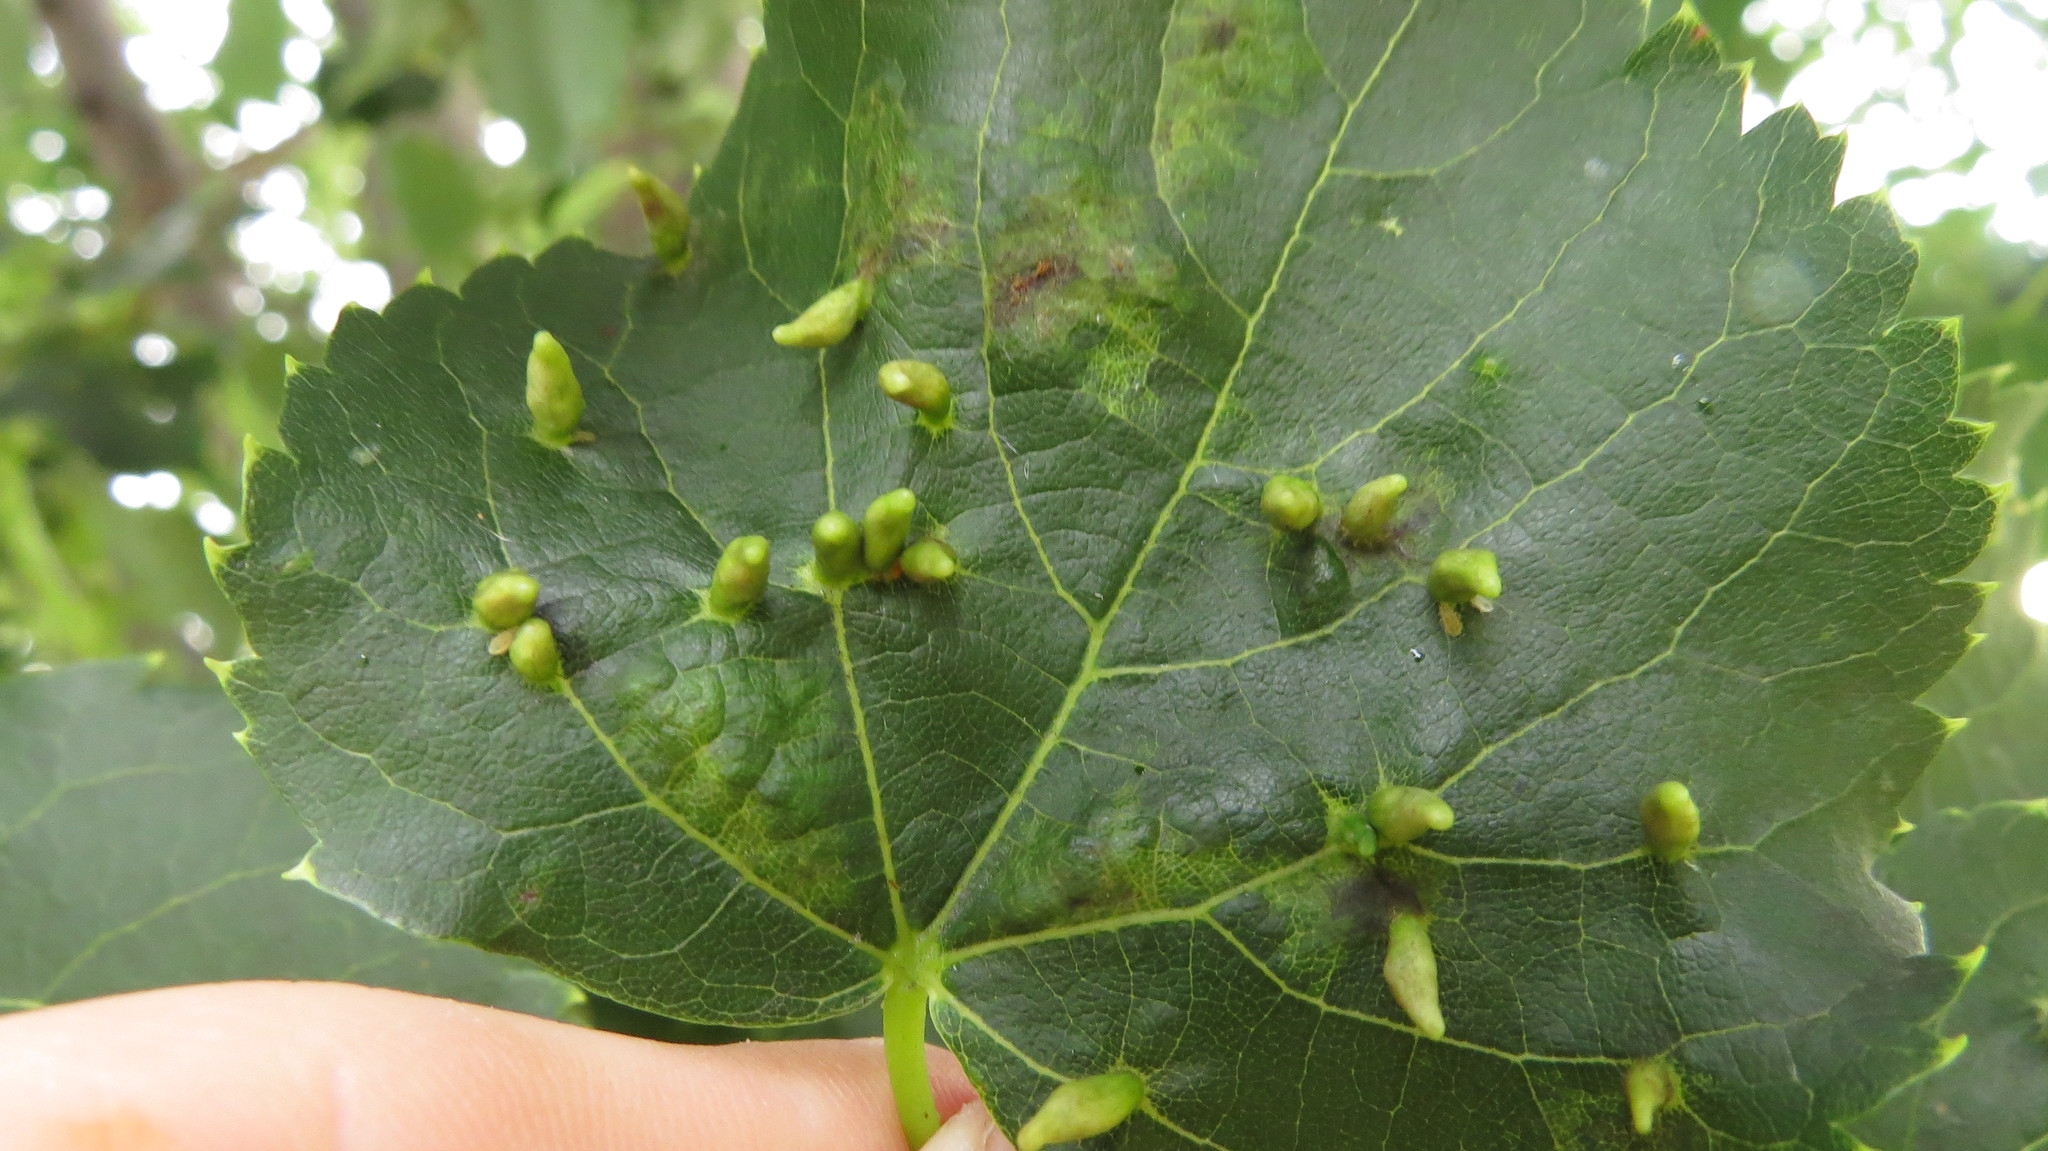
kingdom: Animalia
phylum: Arthropoda
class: Arachnida
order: Trombidiformes
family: Eriophyidae
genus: Eriophyes
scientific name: Eriophyes tiliae
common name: Red nail gall mite
